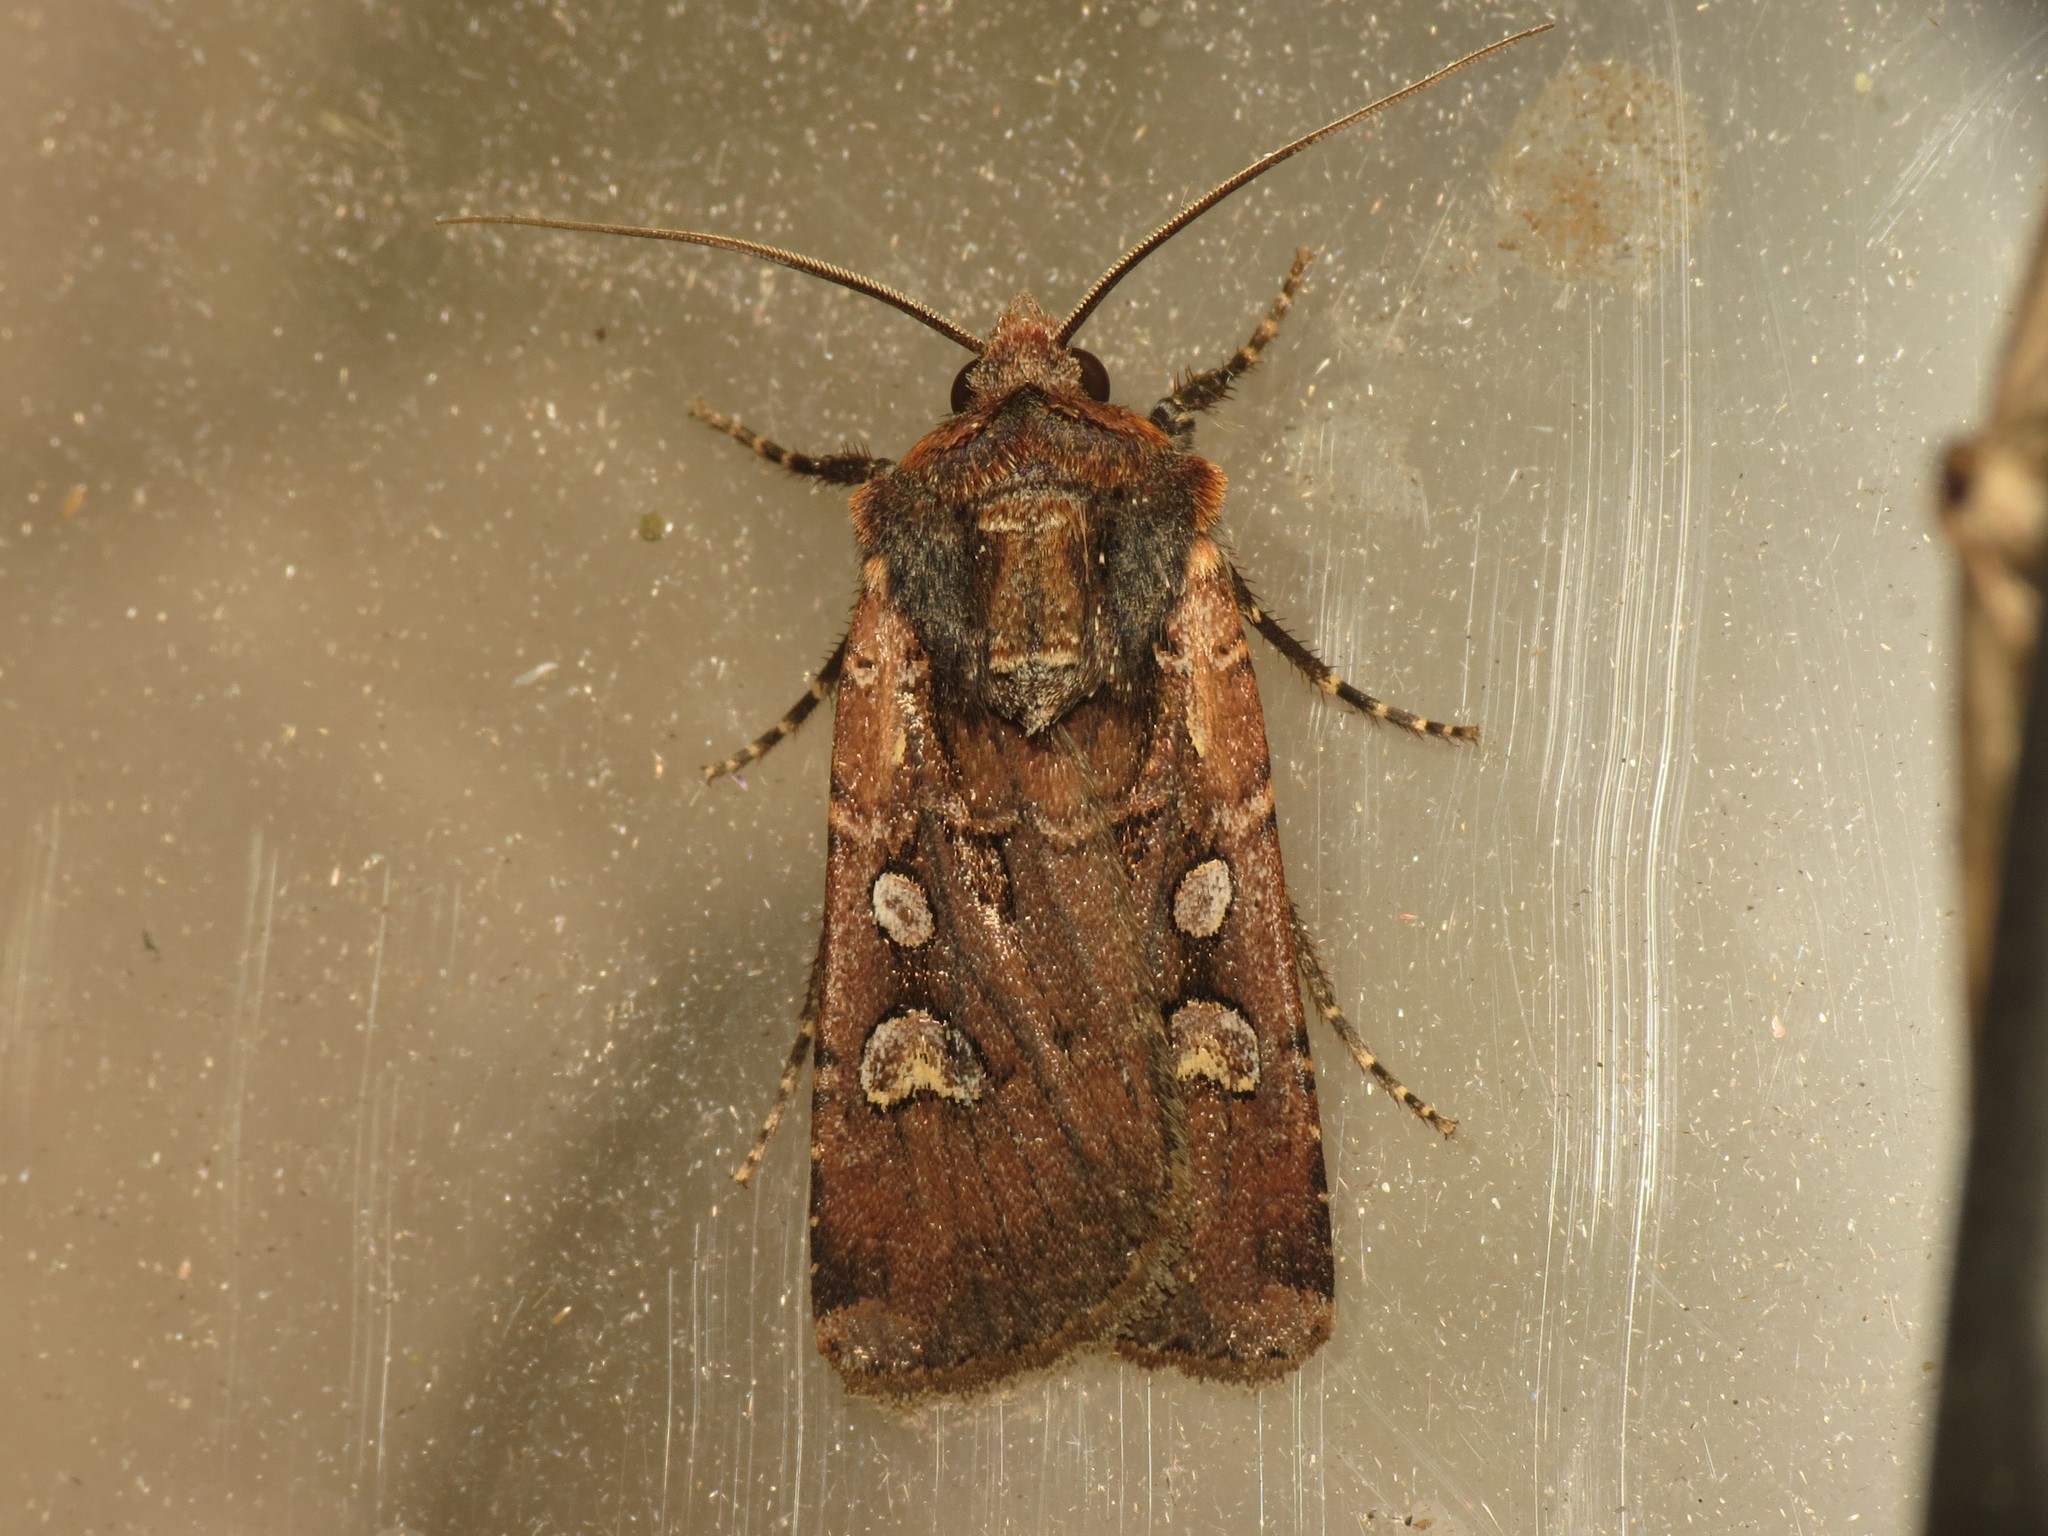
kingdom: Animalia
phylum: Arthropoda
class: Insecta
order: Lepidoptera
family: Noctuidae
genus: Euxoa
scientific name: Euxoa obelisca
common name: Square-spot dart
